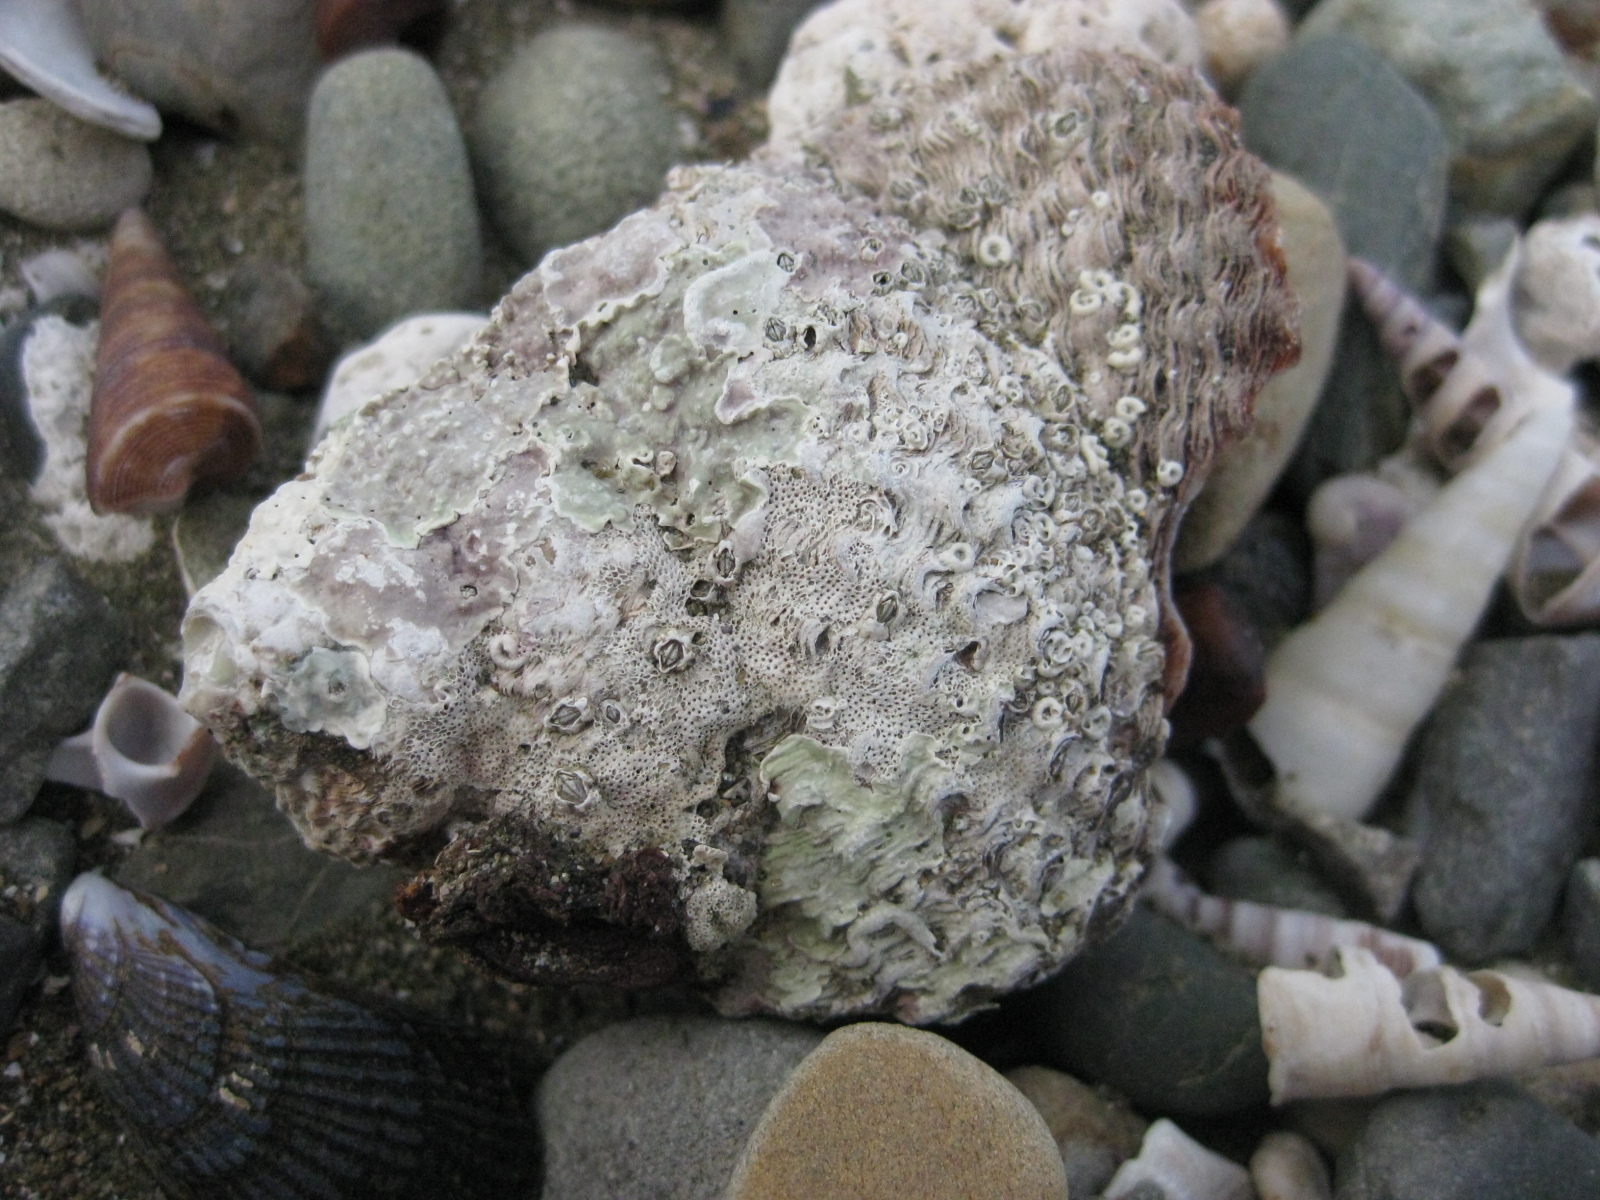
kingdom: Animalia
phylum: Mollusca
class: Gastropoda
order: Trochida
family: Turbinidae
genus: Cookia
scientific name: Cookia sulcata
